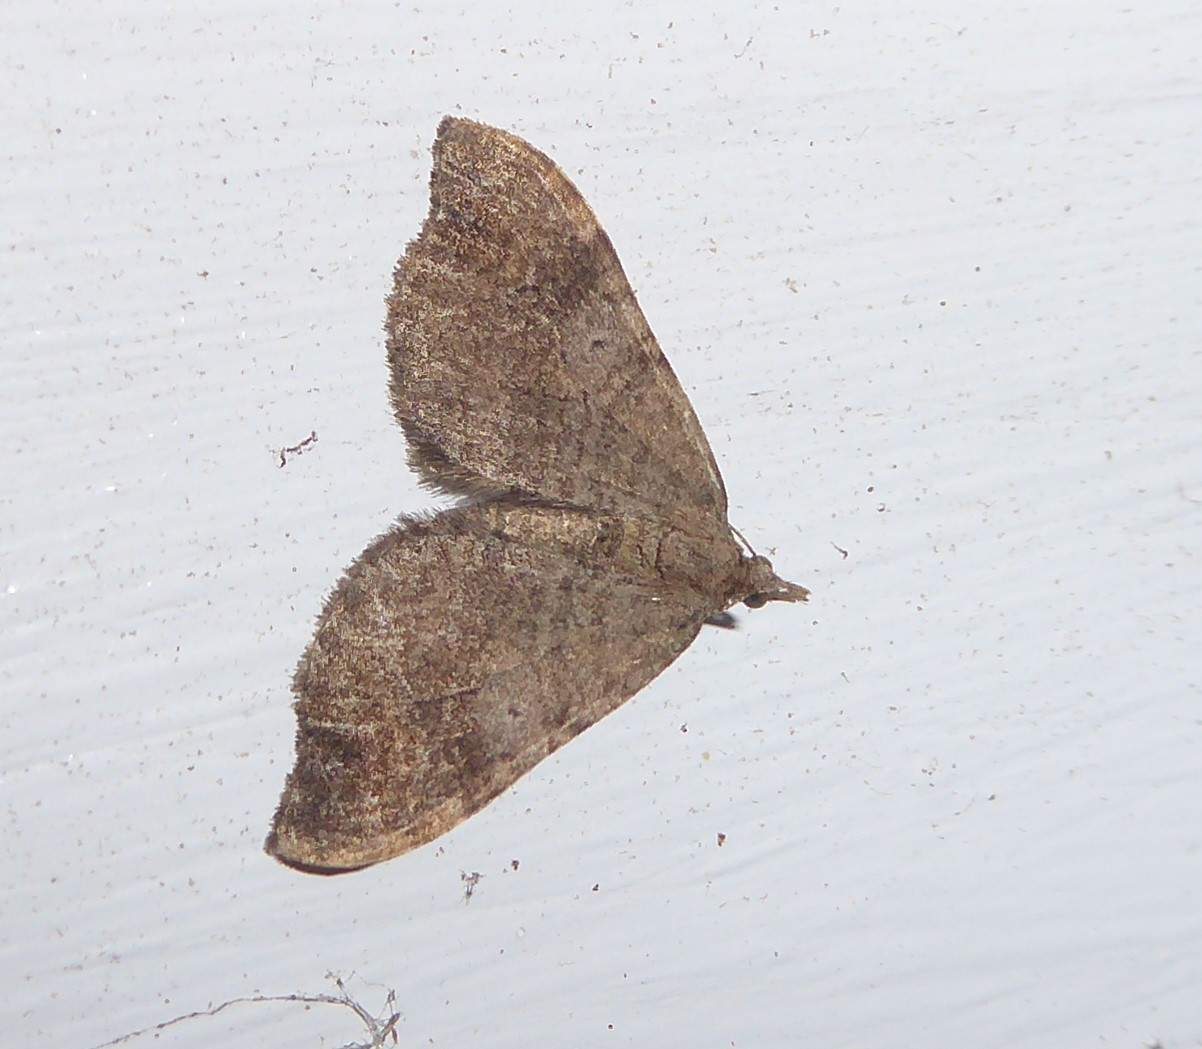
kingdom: Animalia
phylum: Arthropoda
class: Insecta
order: Lepidoptera
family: Geometridae
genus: Homodotis
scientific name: Homodotis megaspilata
